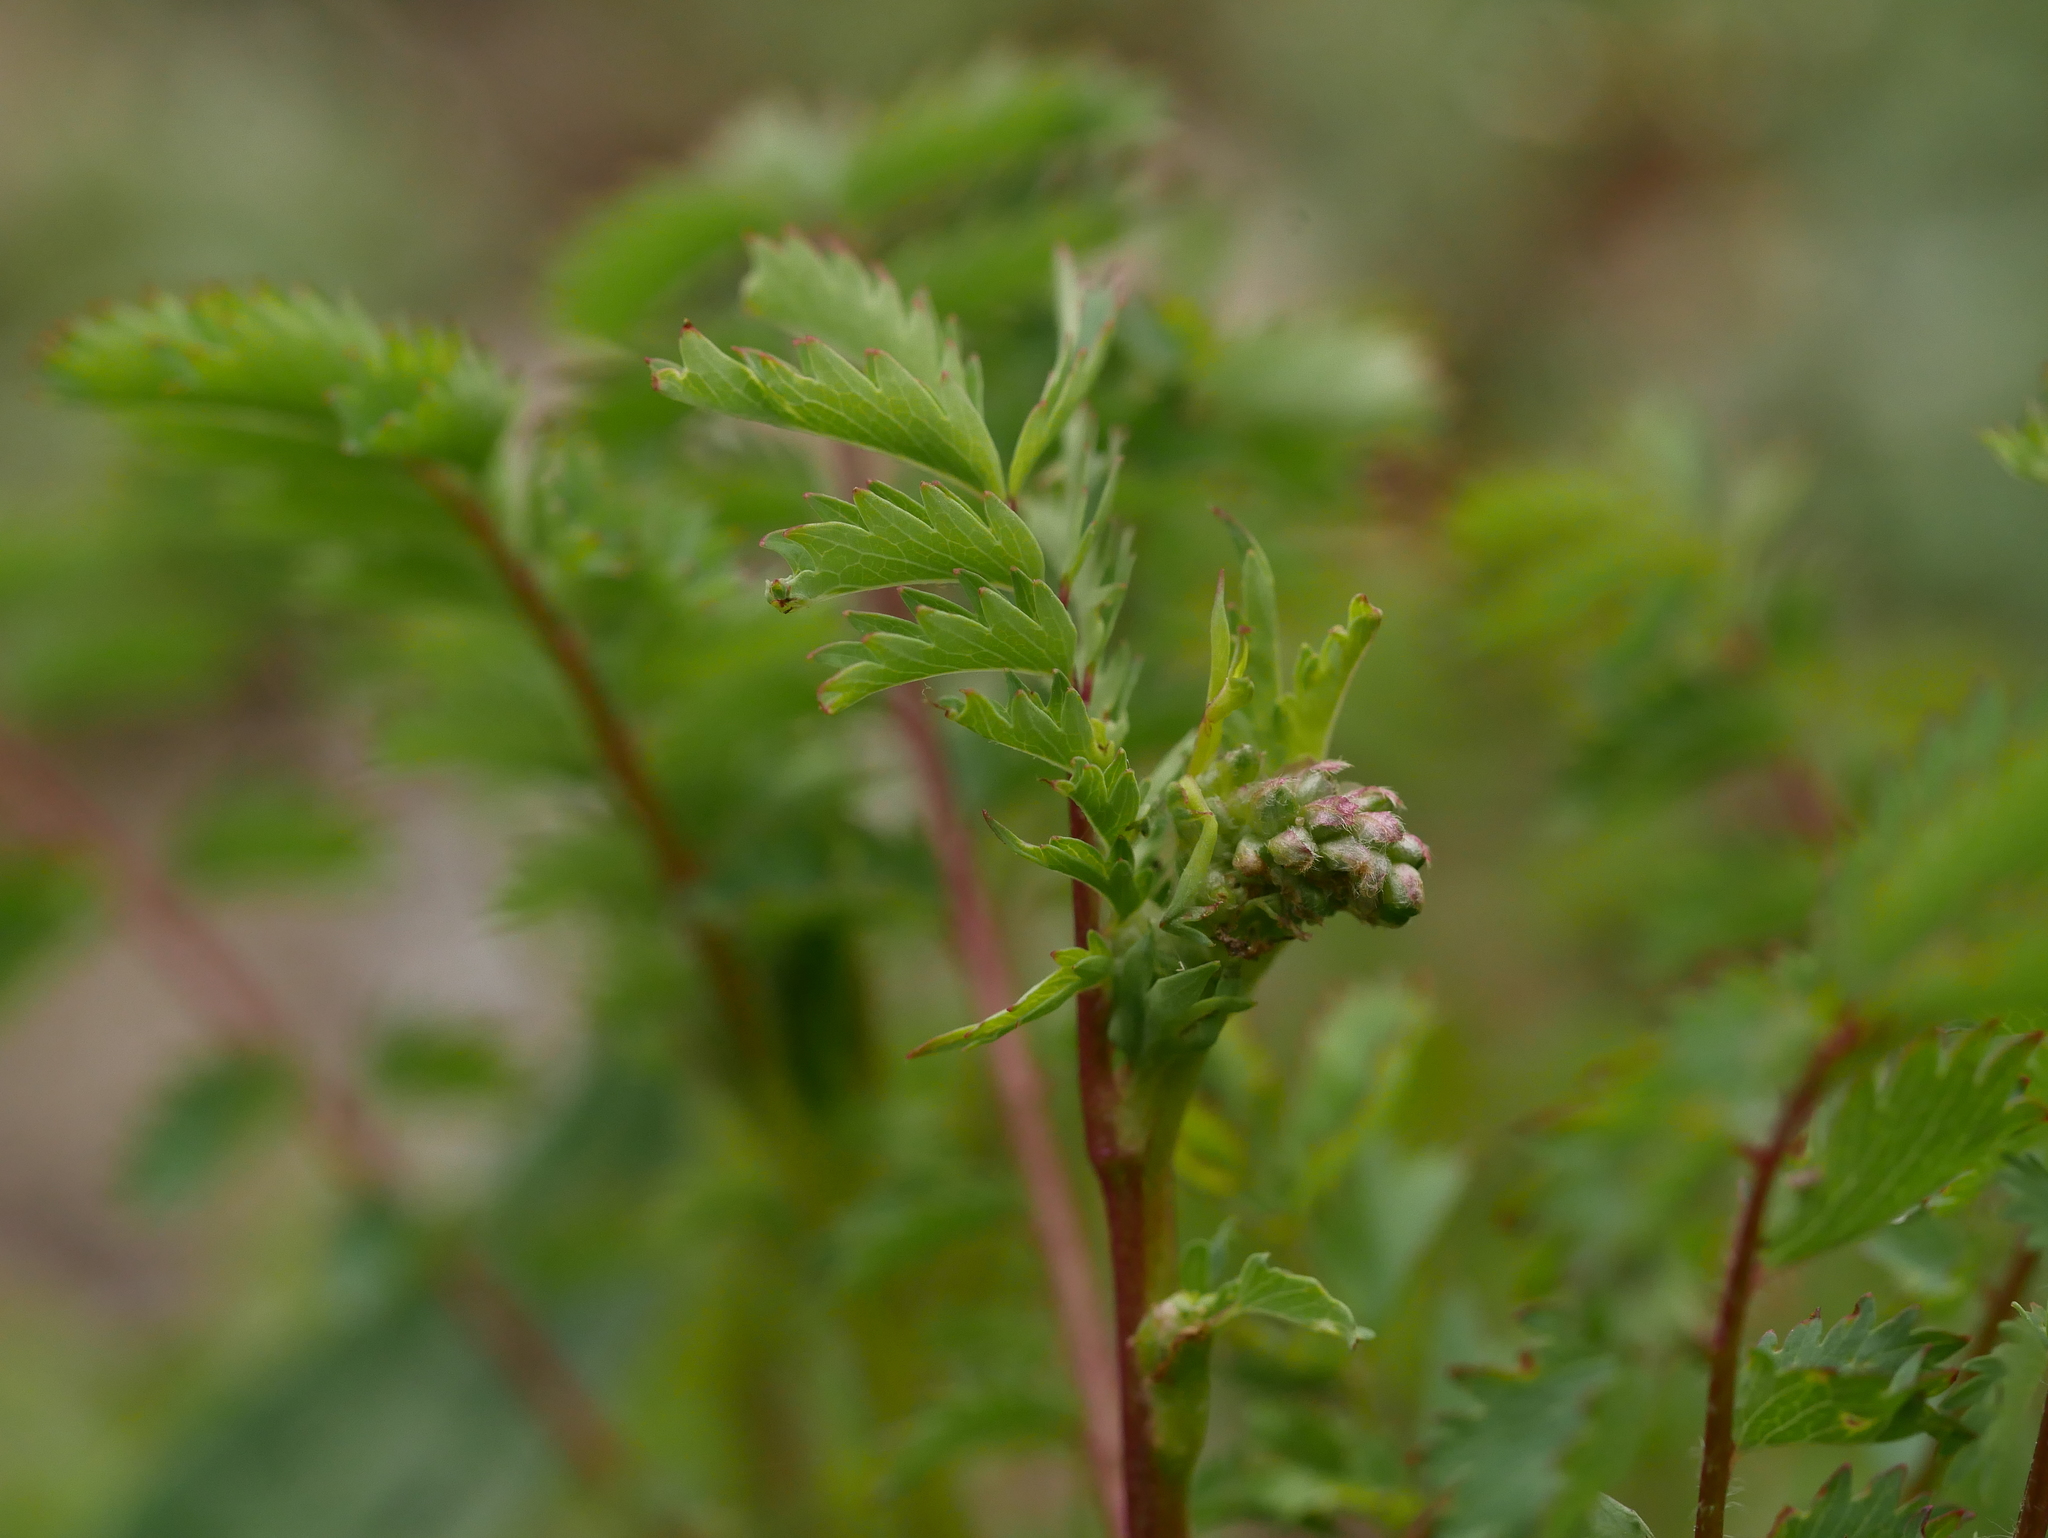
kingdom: Plantae
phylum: Tracheophyta
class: Magnoliopsida
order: Rosales
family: Rosaceae
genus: Poterium
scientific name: Poterium sanguisorba
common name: Salad burnet
